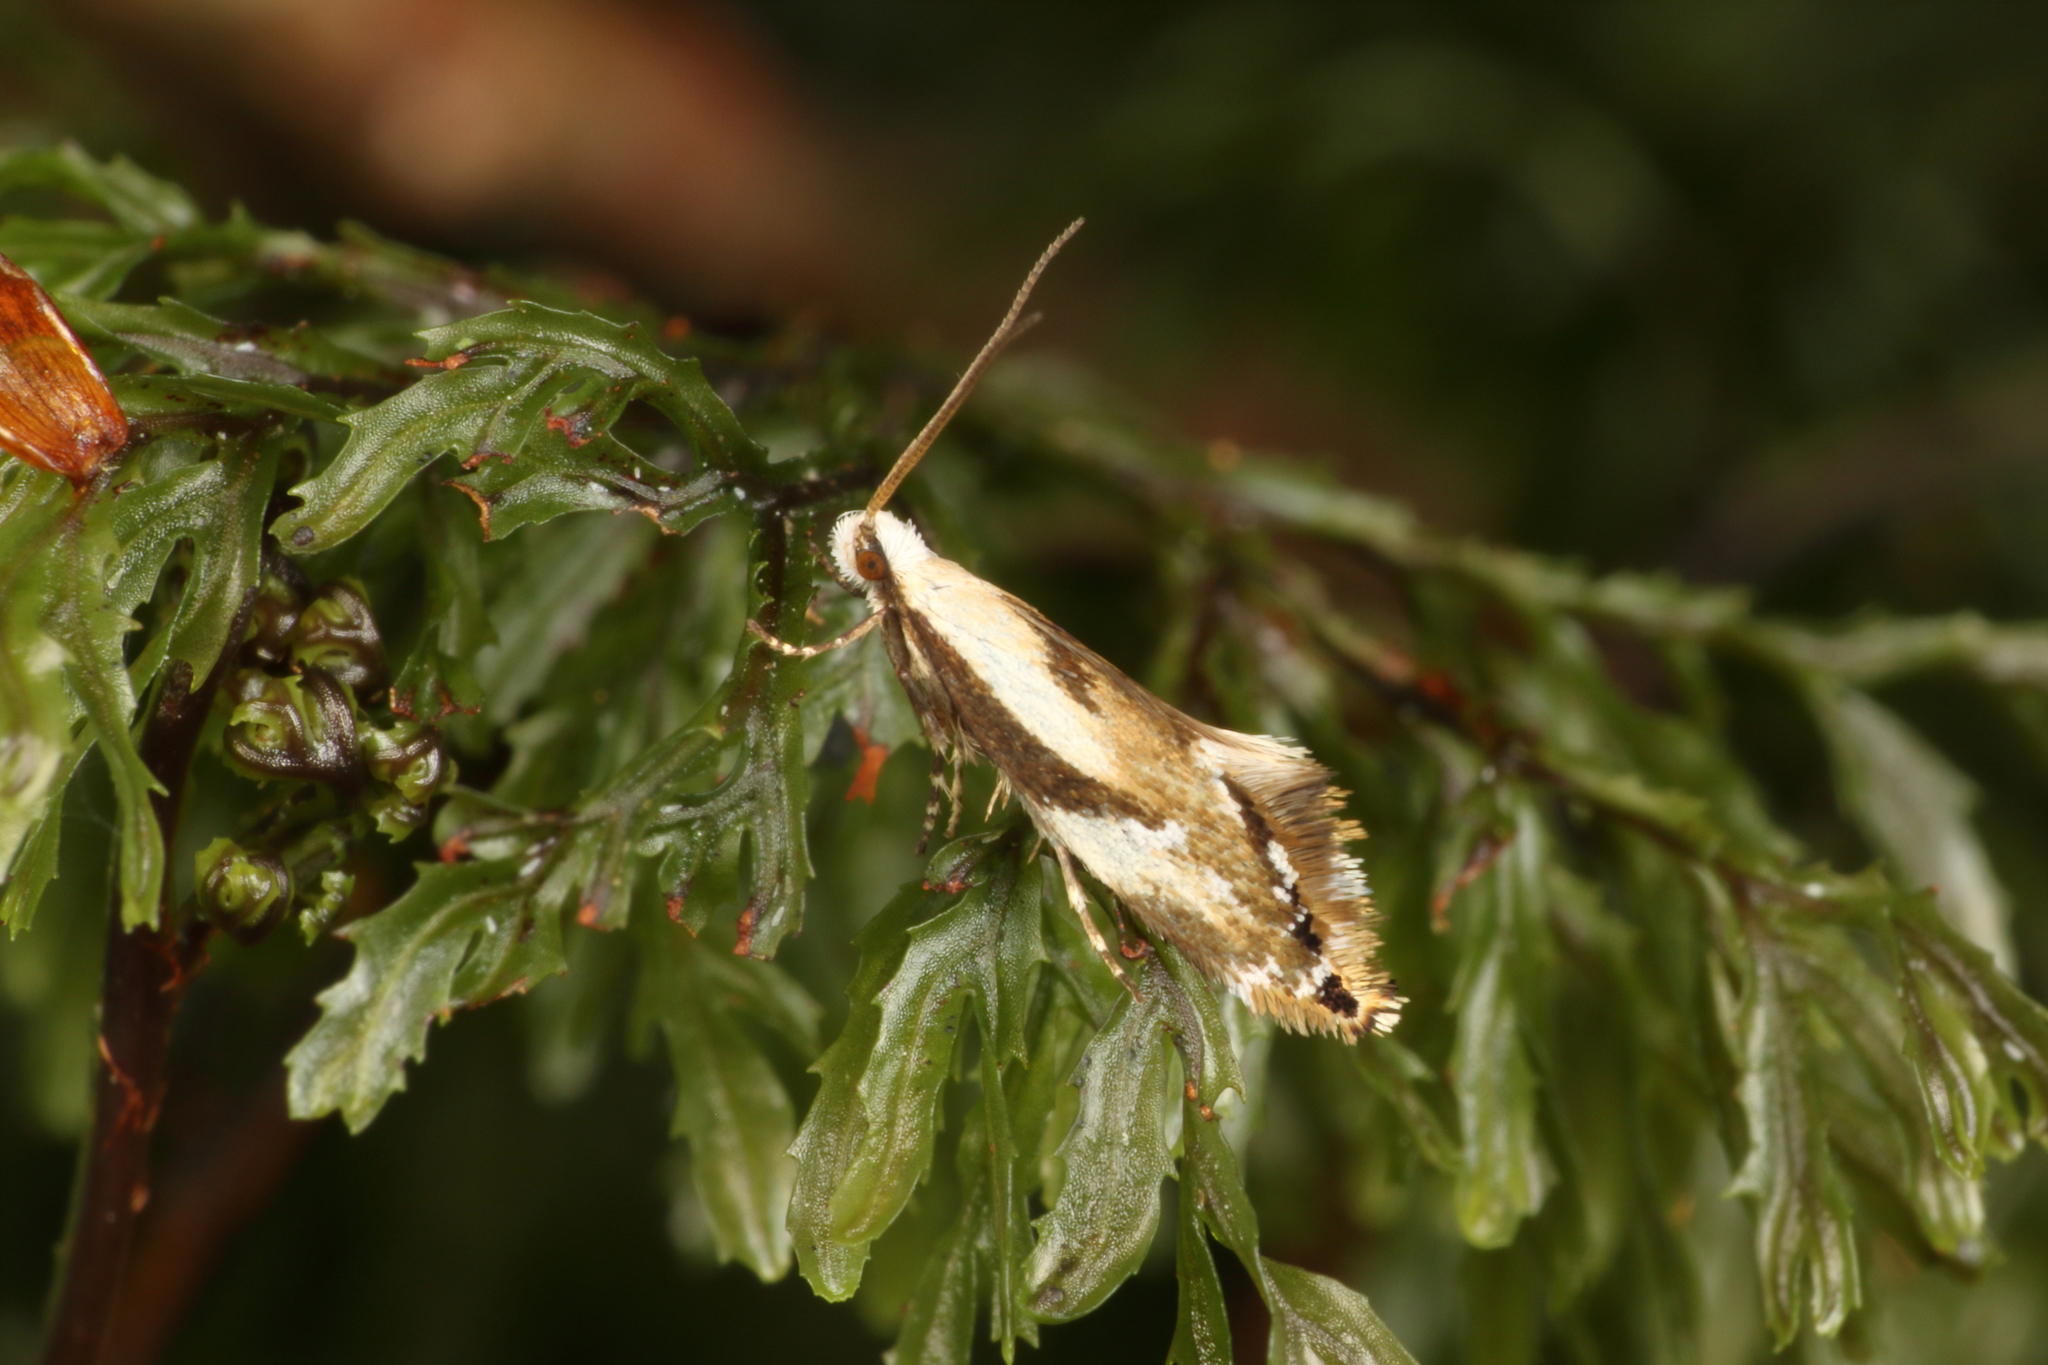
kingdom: Animalia
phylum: Arthropoda
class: Insecta
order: Lepidoptera
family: Mnesarchaeidae
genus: Mnesarchella
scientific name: Mnesarchella acuta
